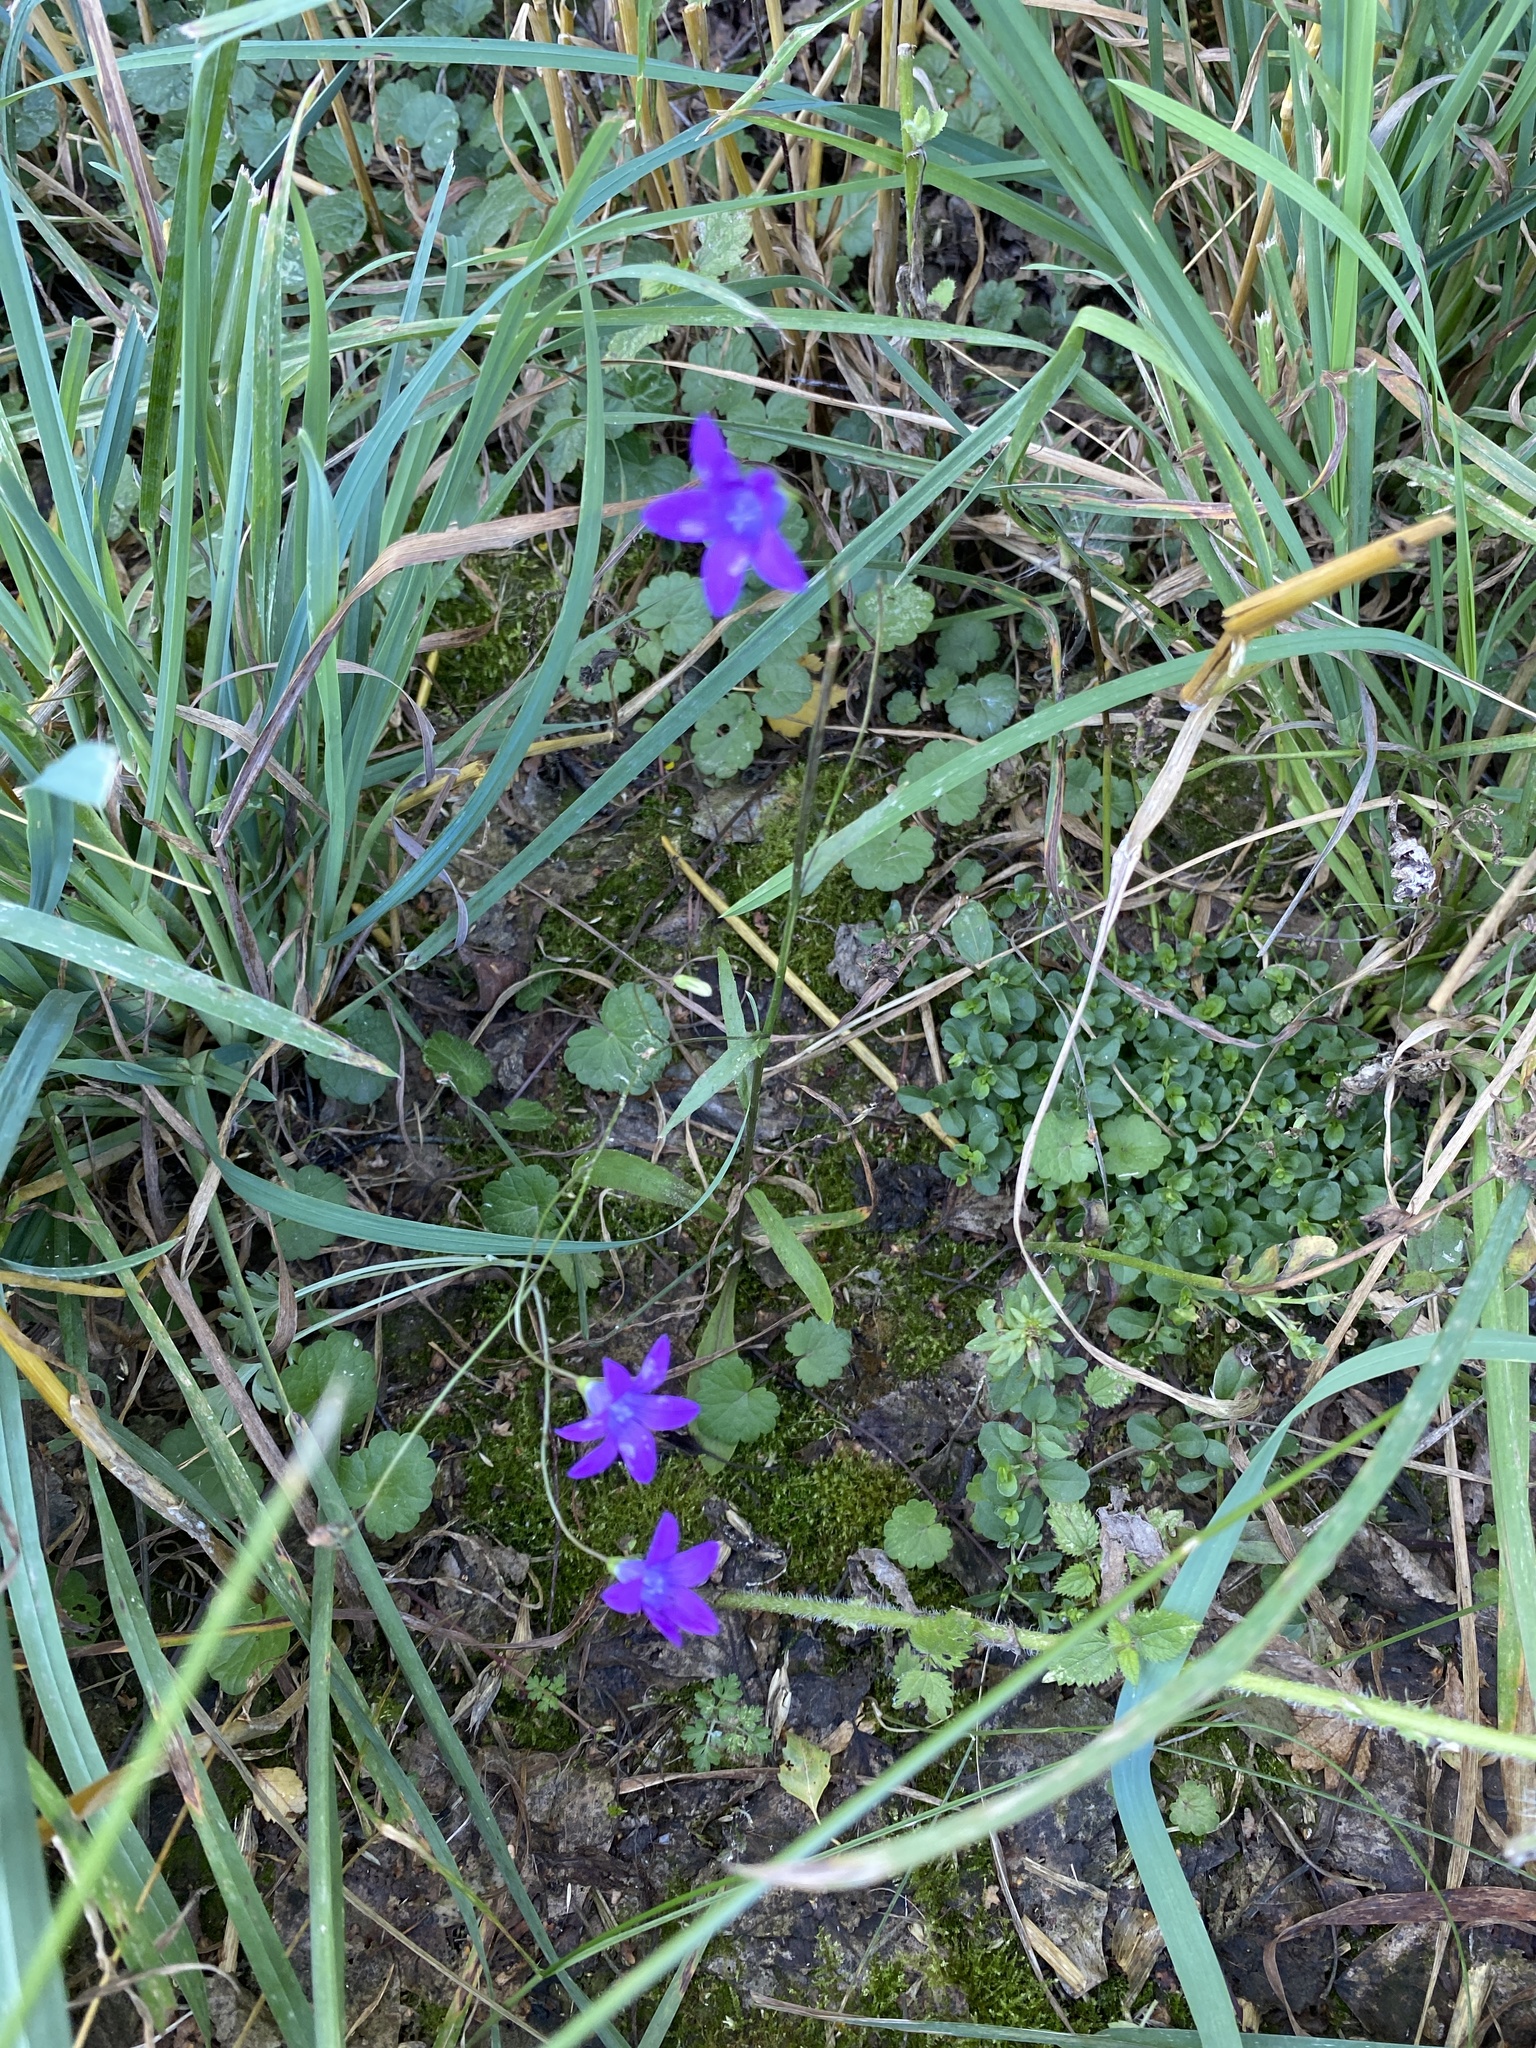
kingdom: Plantae
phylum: Tracheophyta
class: Magnoliopsida
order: Asterales
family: Campanulaceae
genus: Campanula
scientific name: Campanula patula
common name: Spreading bellflower
